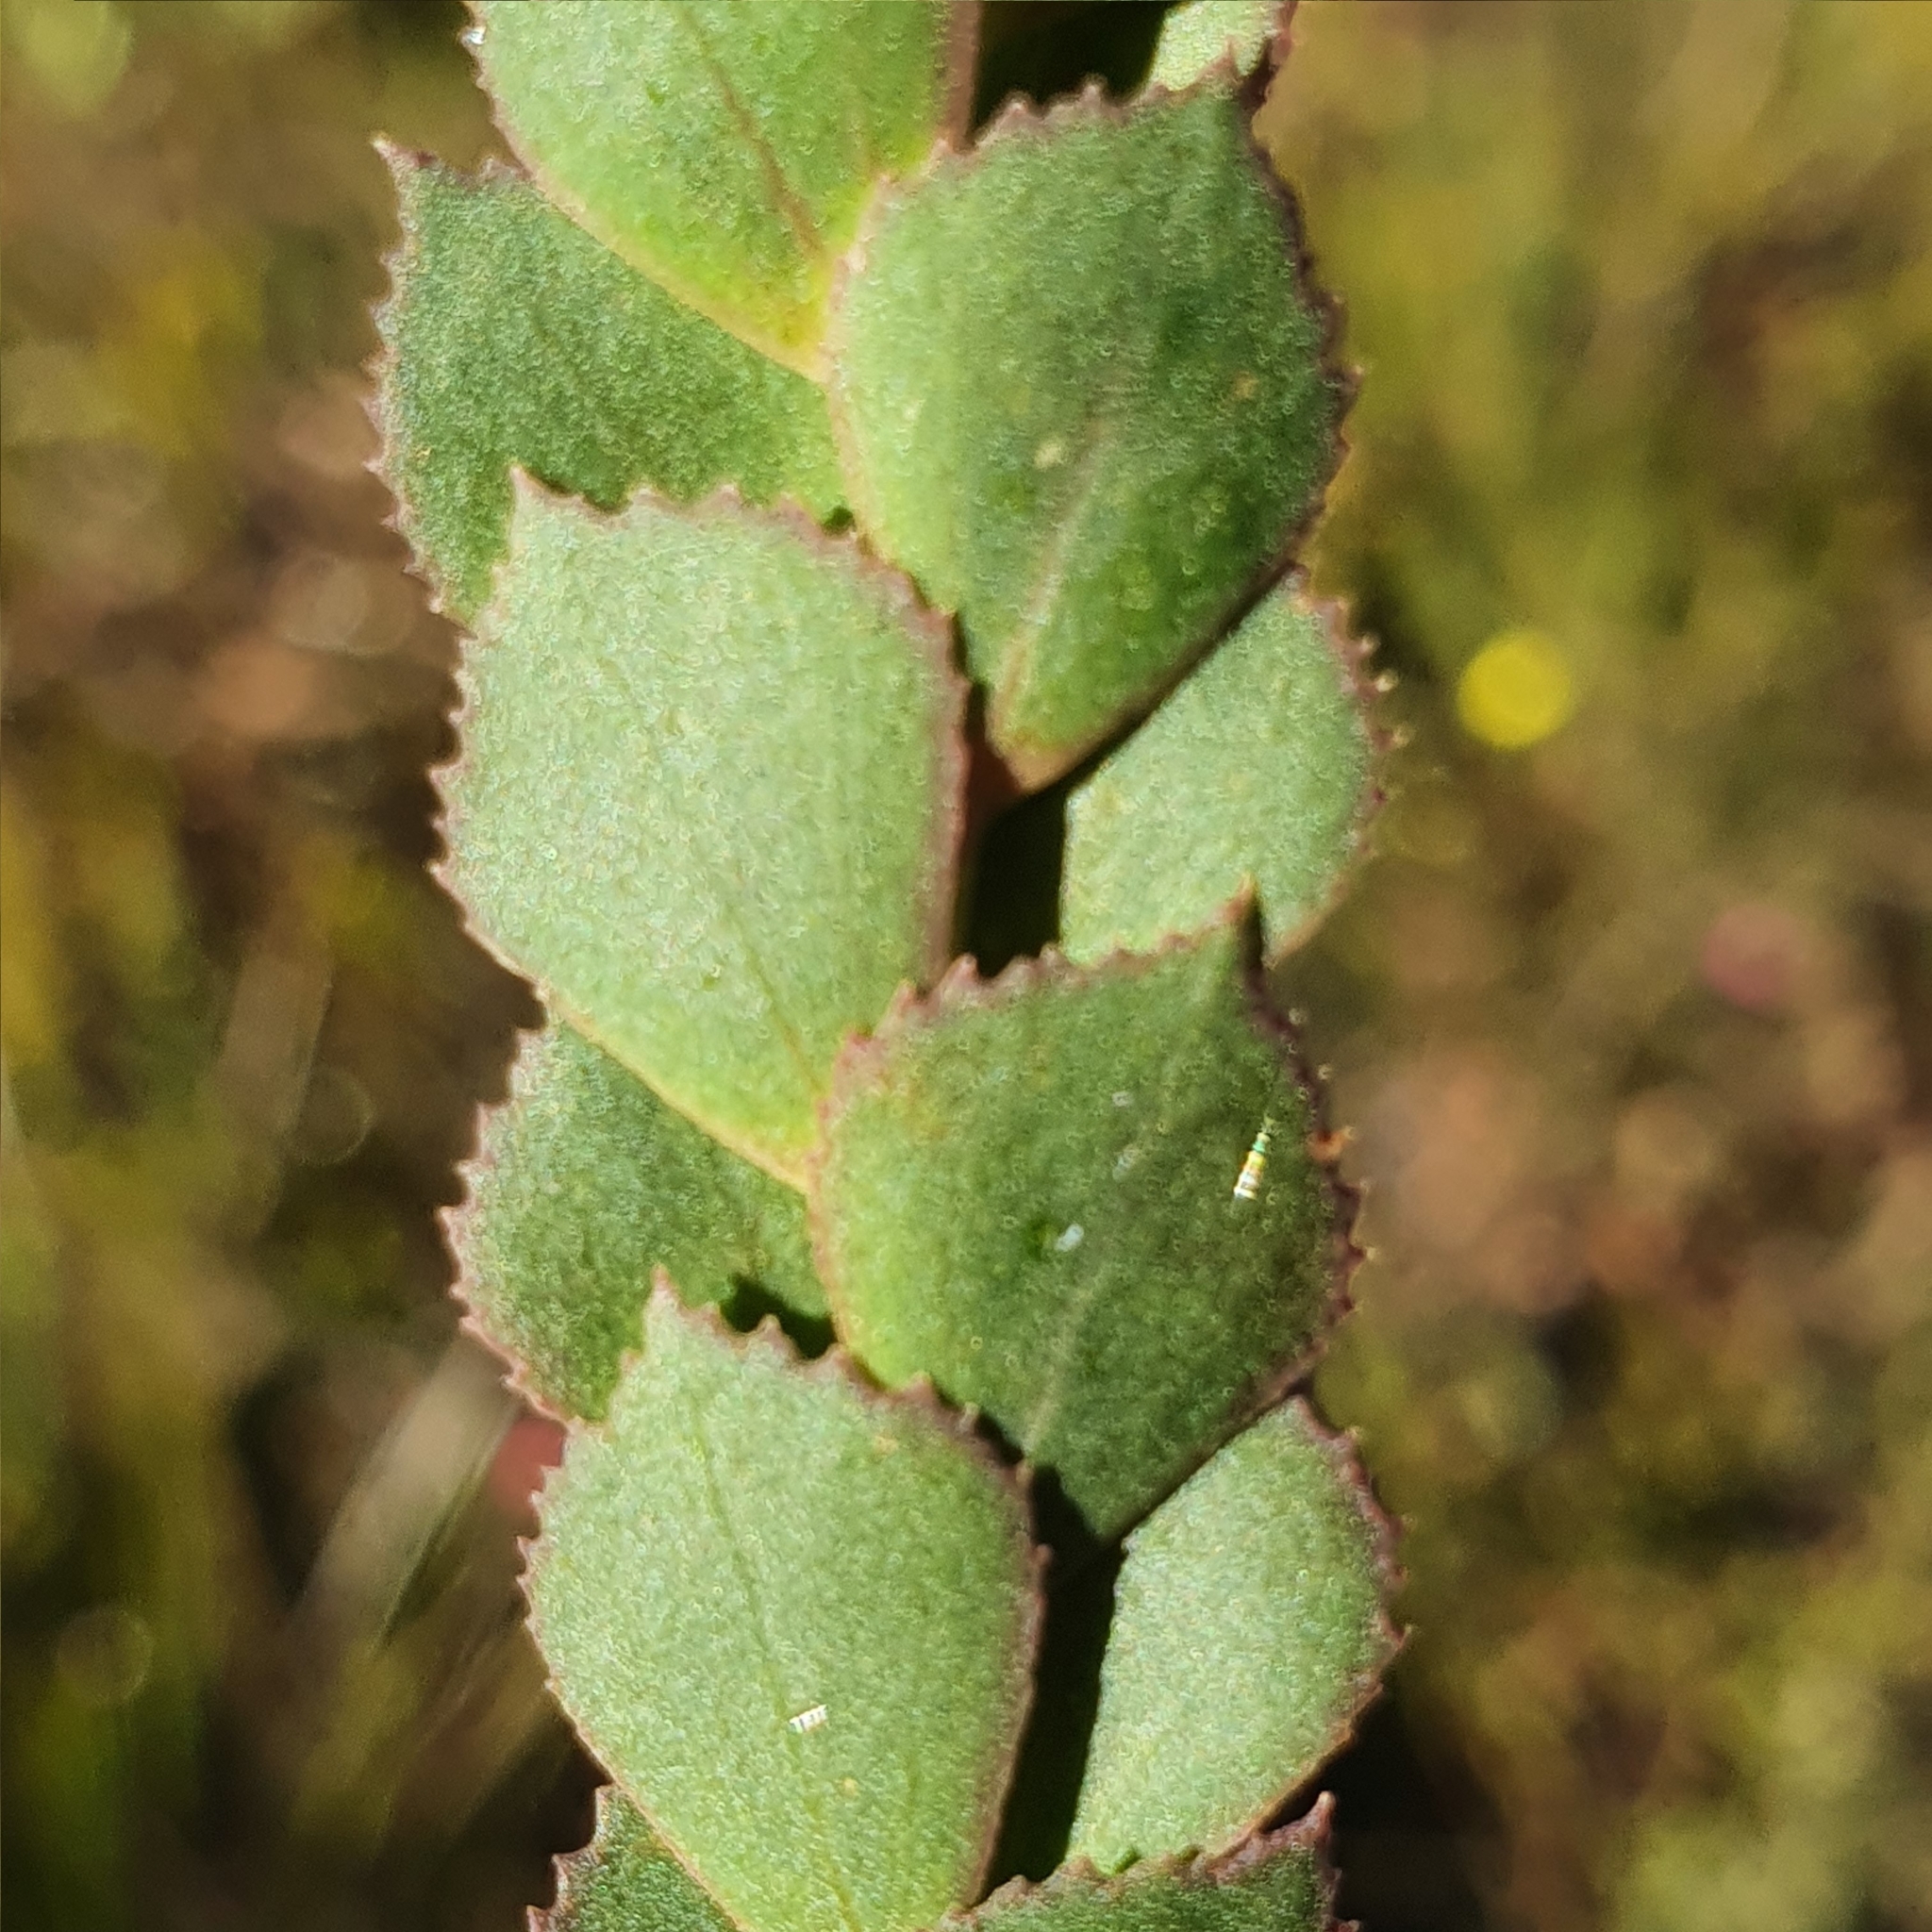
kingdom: Plantae
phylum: Tracheophyta
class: Magnoliopsida
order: Sapindales
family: Rutaceae
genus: Boronia
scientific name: Boronia serrulata
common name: Rose boronia
